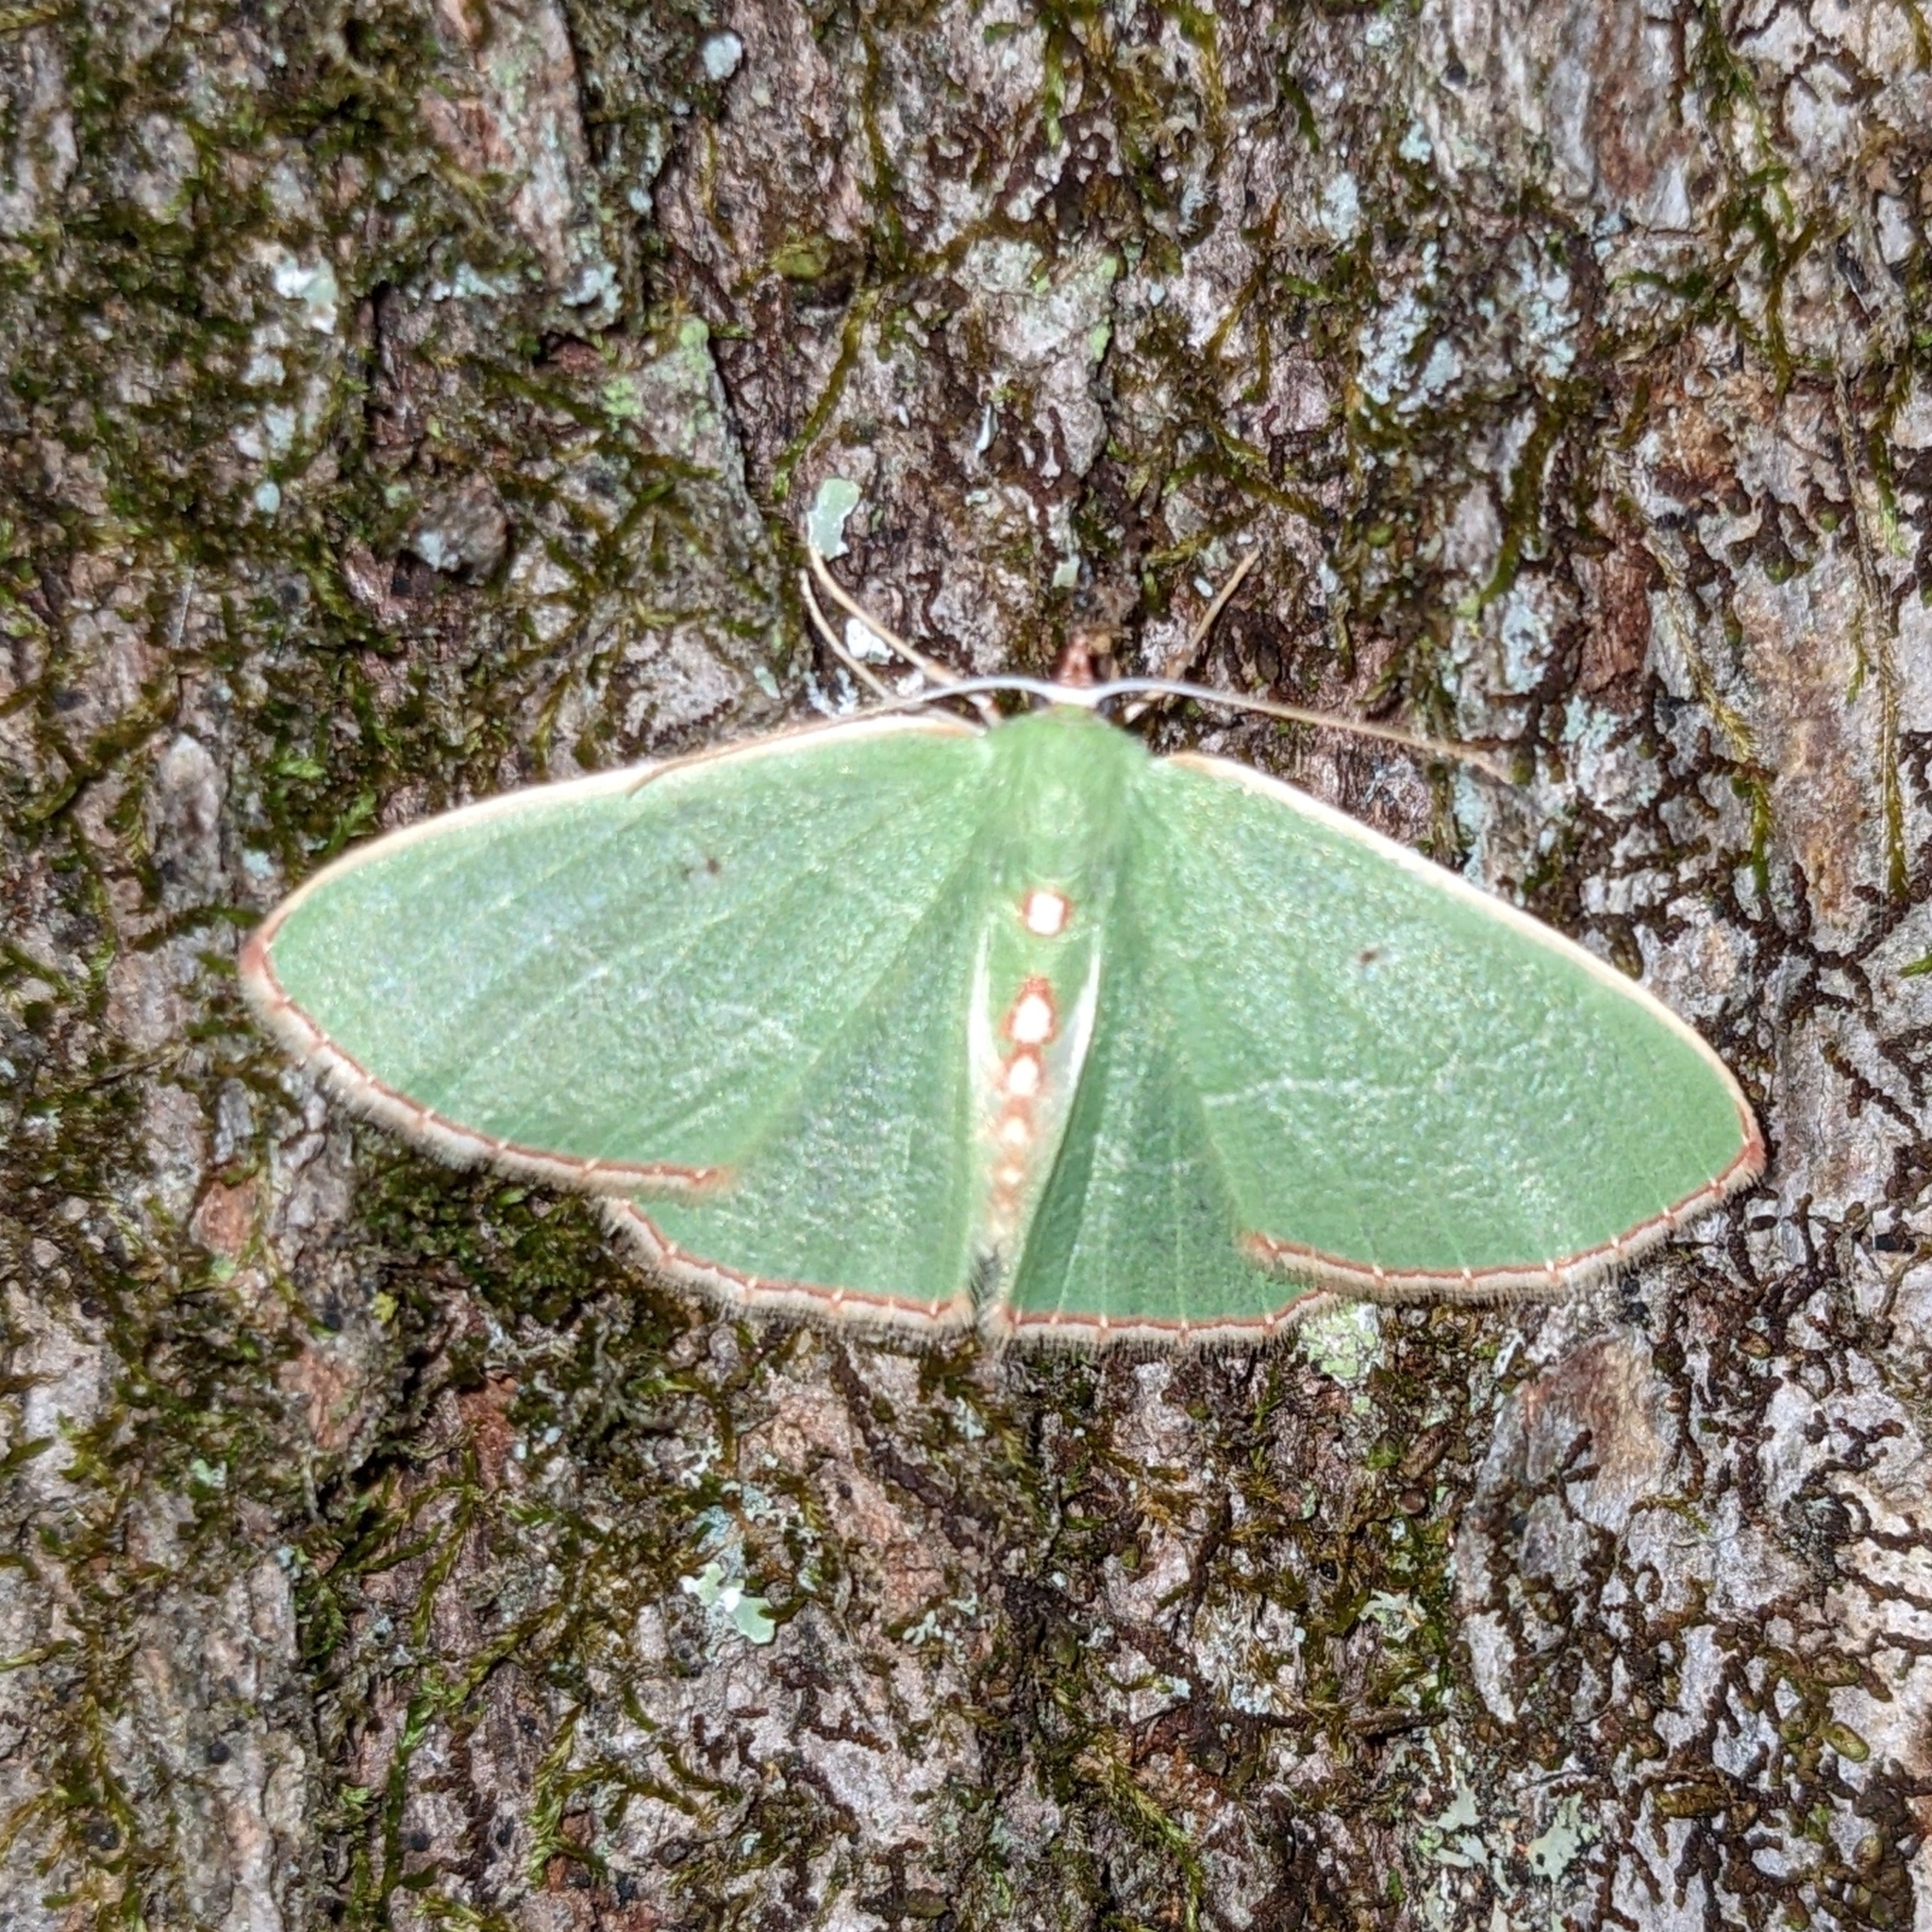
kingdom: Animalia
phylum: Arthropoda
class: Insecta
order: Lepidoptera
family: Geometridae
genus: Nemoria
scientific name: Nemoria bistriaria
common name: Red-fringed emerald
